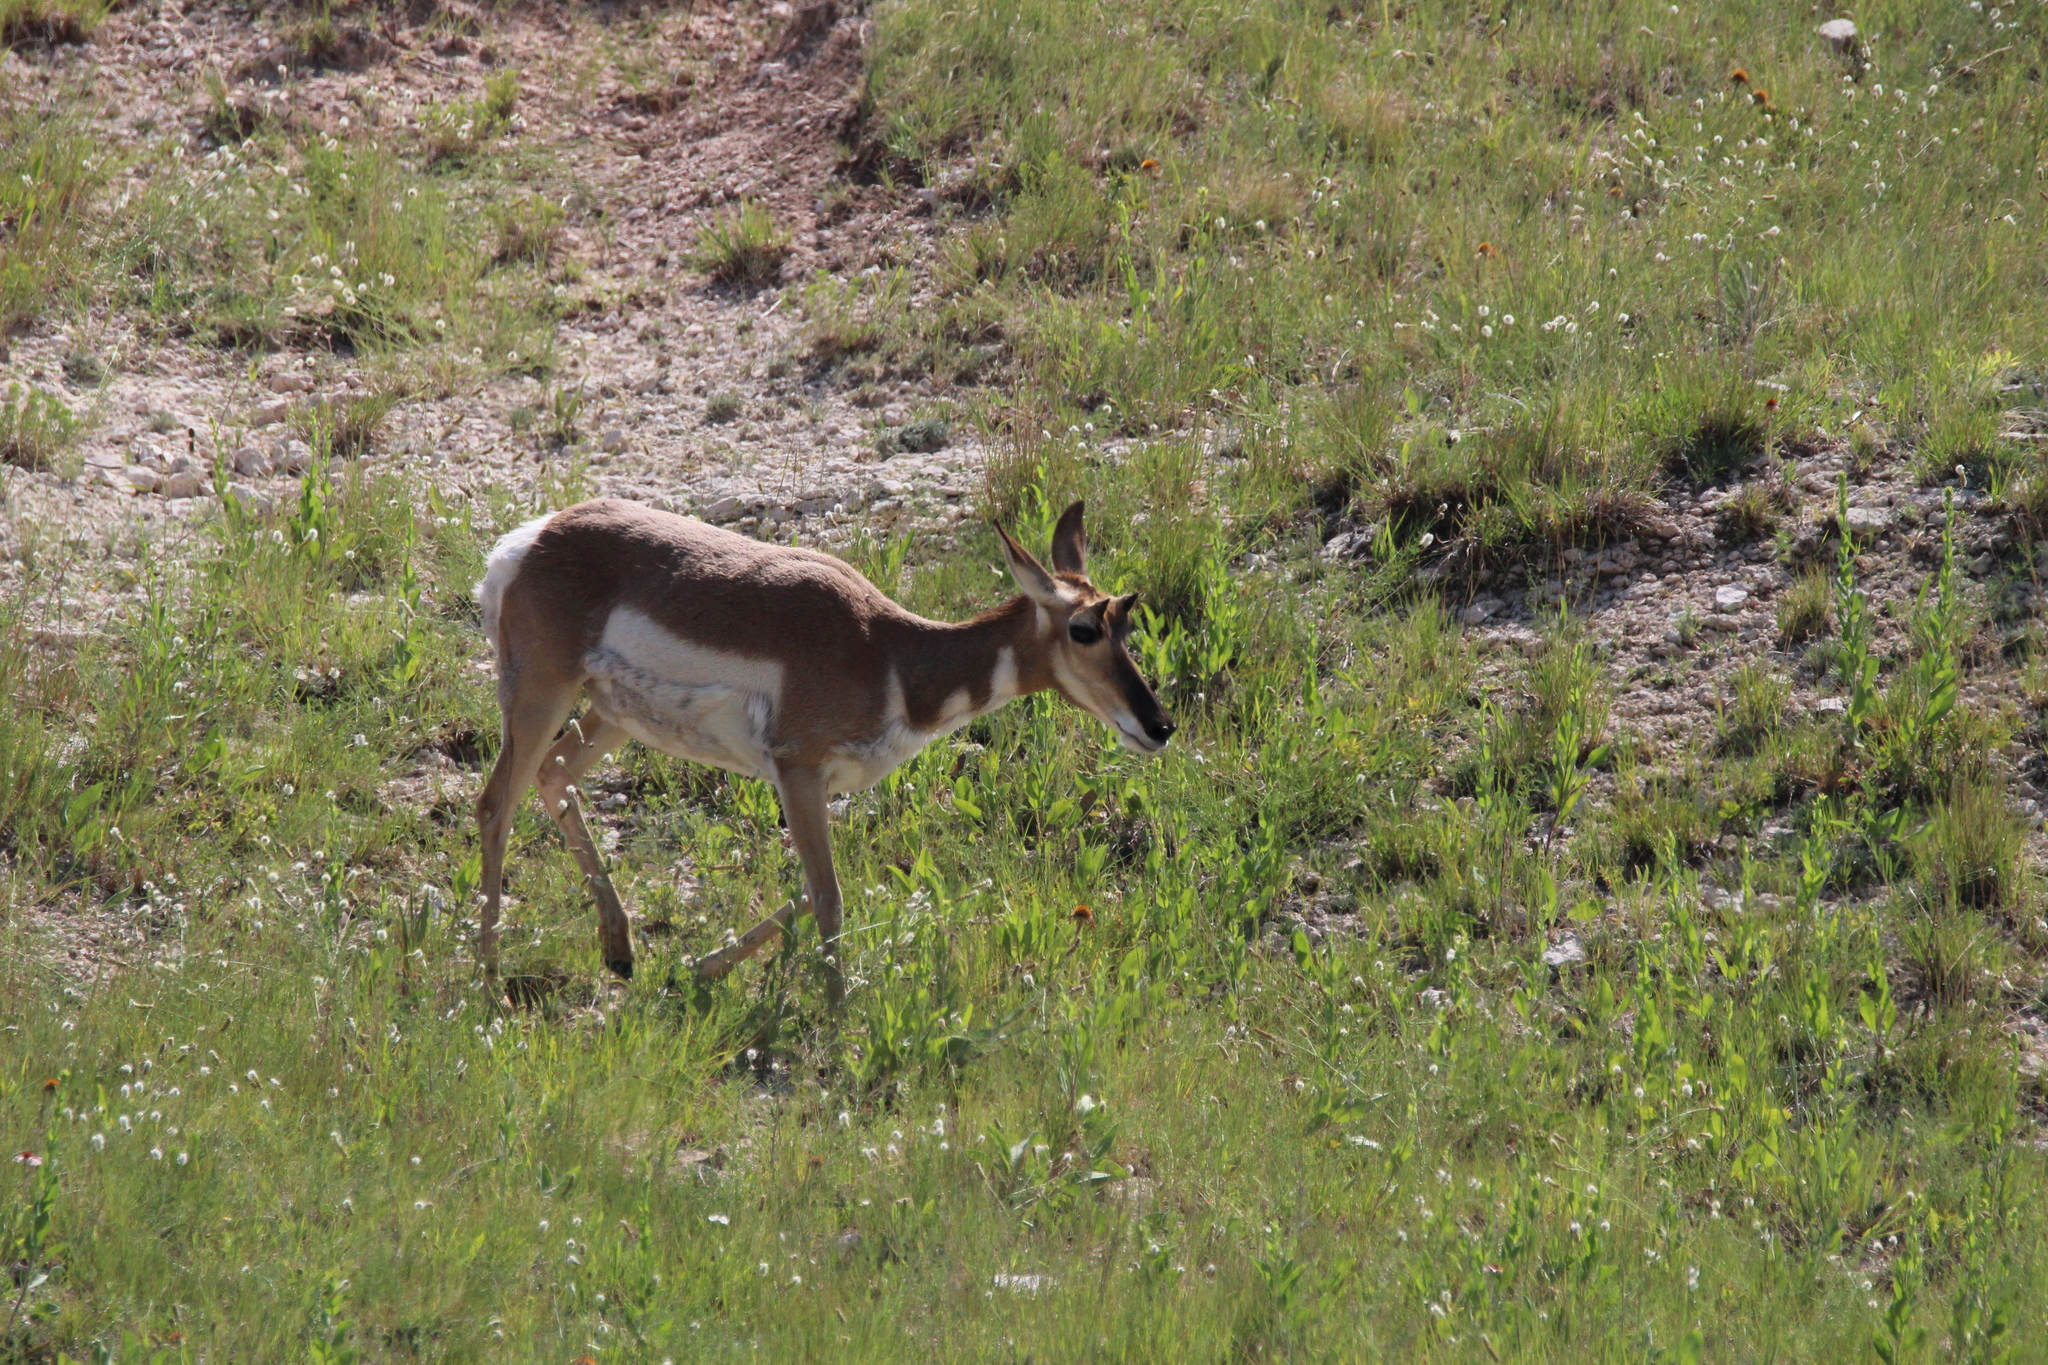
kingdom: Animalia
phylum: Chordata
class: Mammalia
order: Artiodactyla
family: Antilocapridae
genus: Antilocapra
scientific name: Antilocapra americana
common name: Pronghorn
